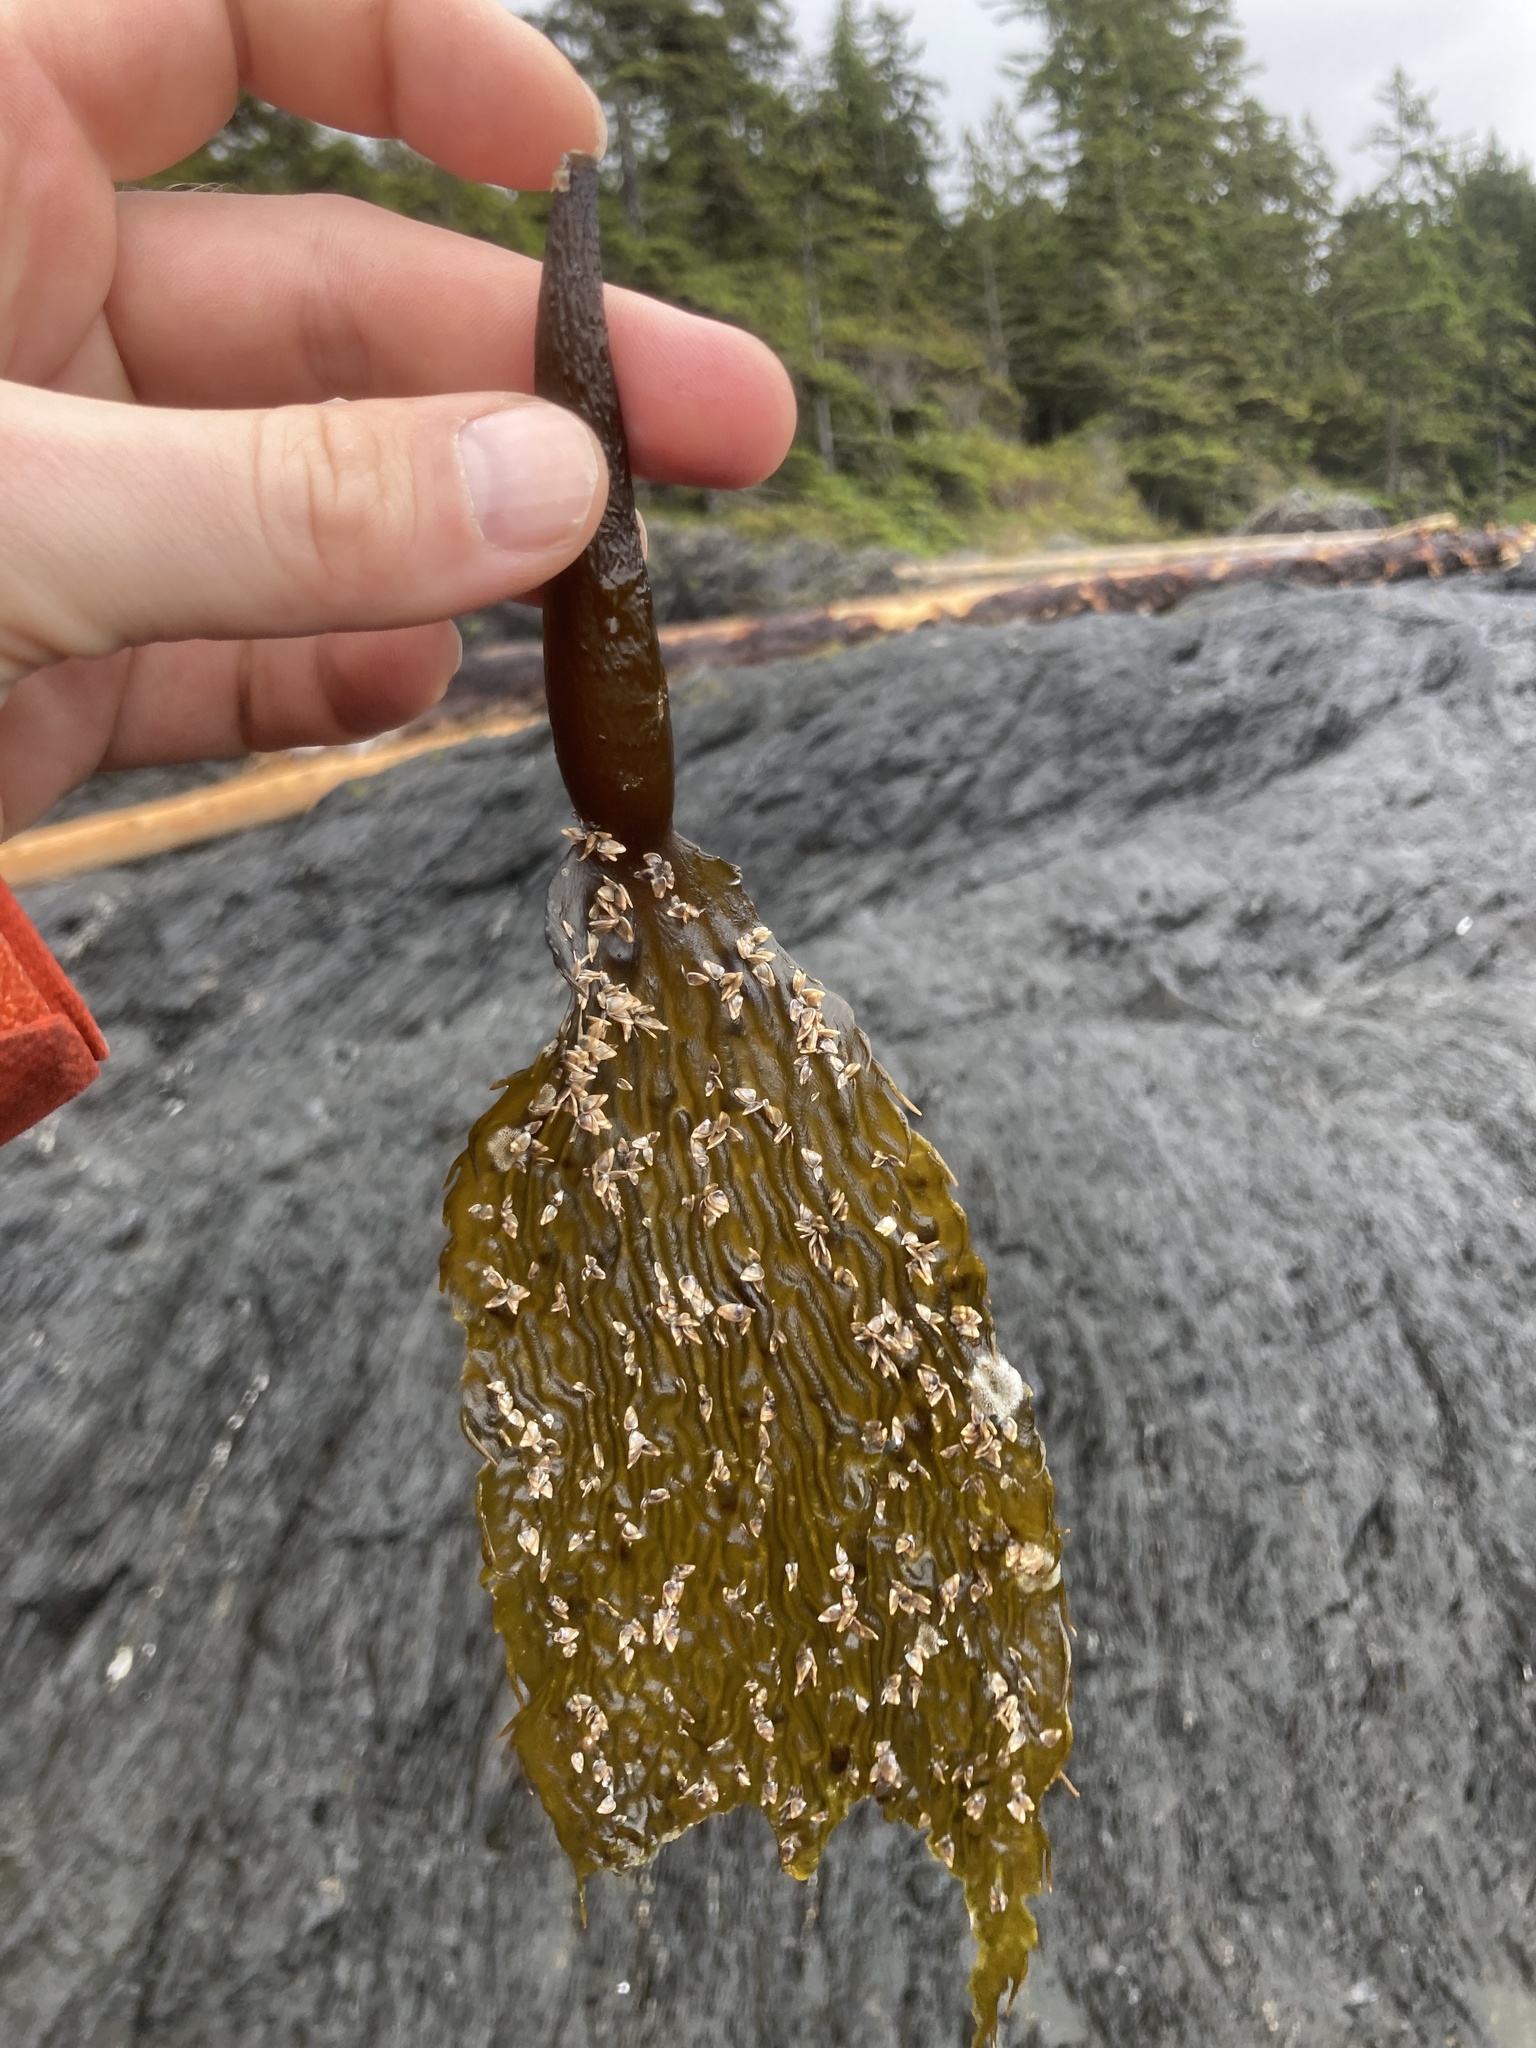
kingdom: Chromista
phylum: Ochrophyta
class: Phaeophyceae
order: Laminariales
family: Laminariaceae
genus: Macrocystis
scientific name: Macrocystis pyrifera
